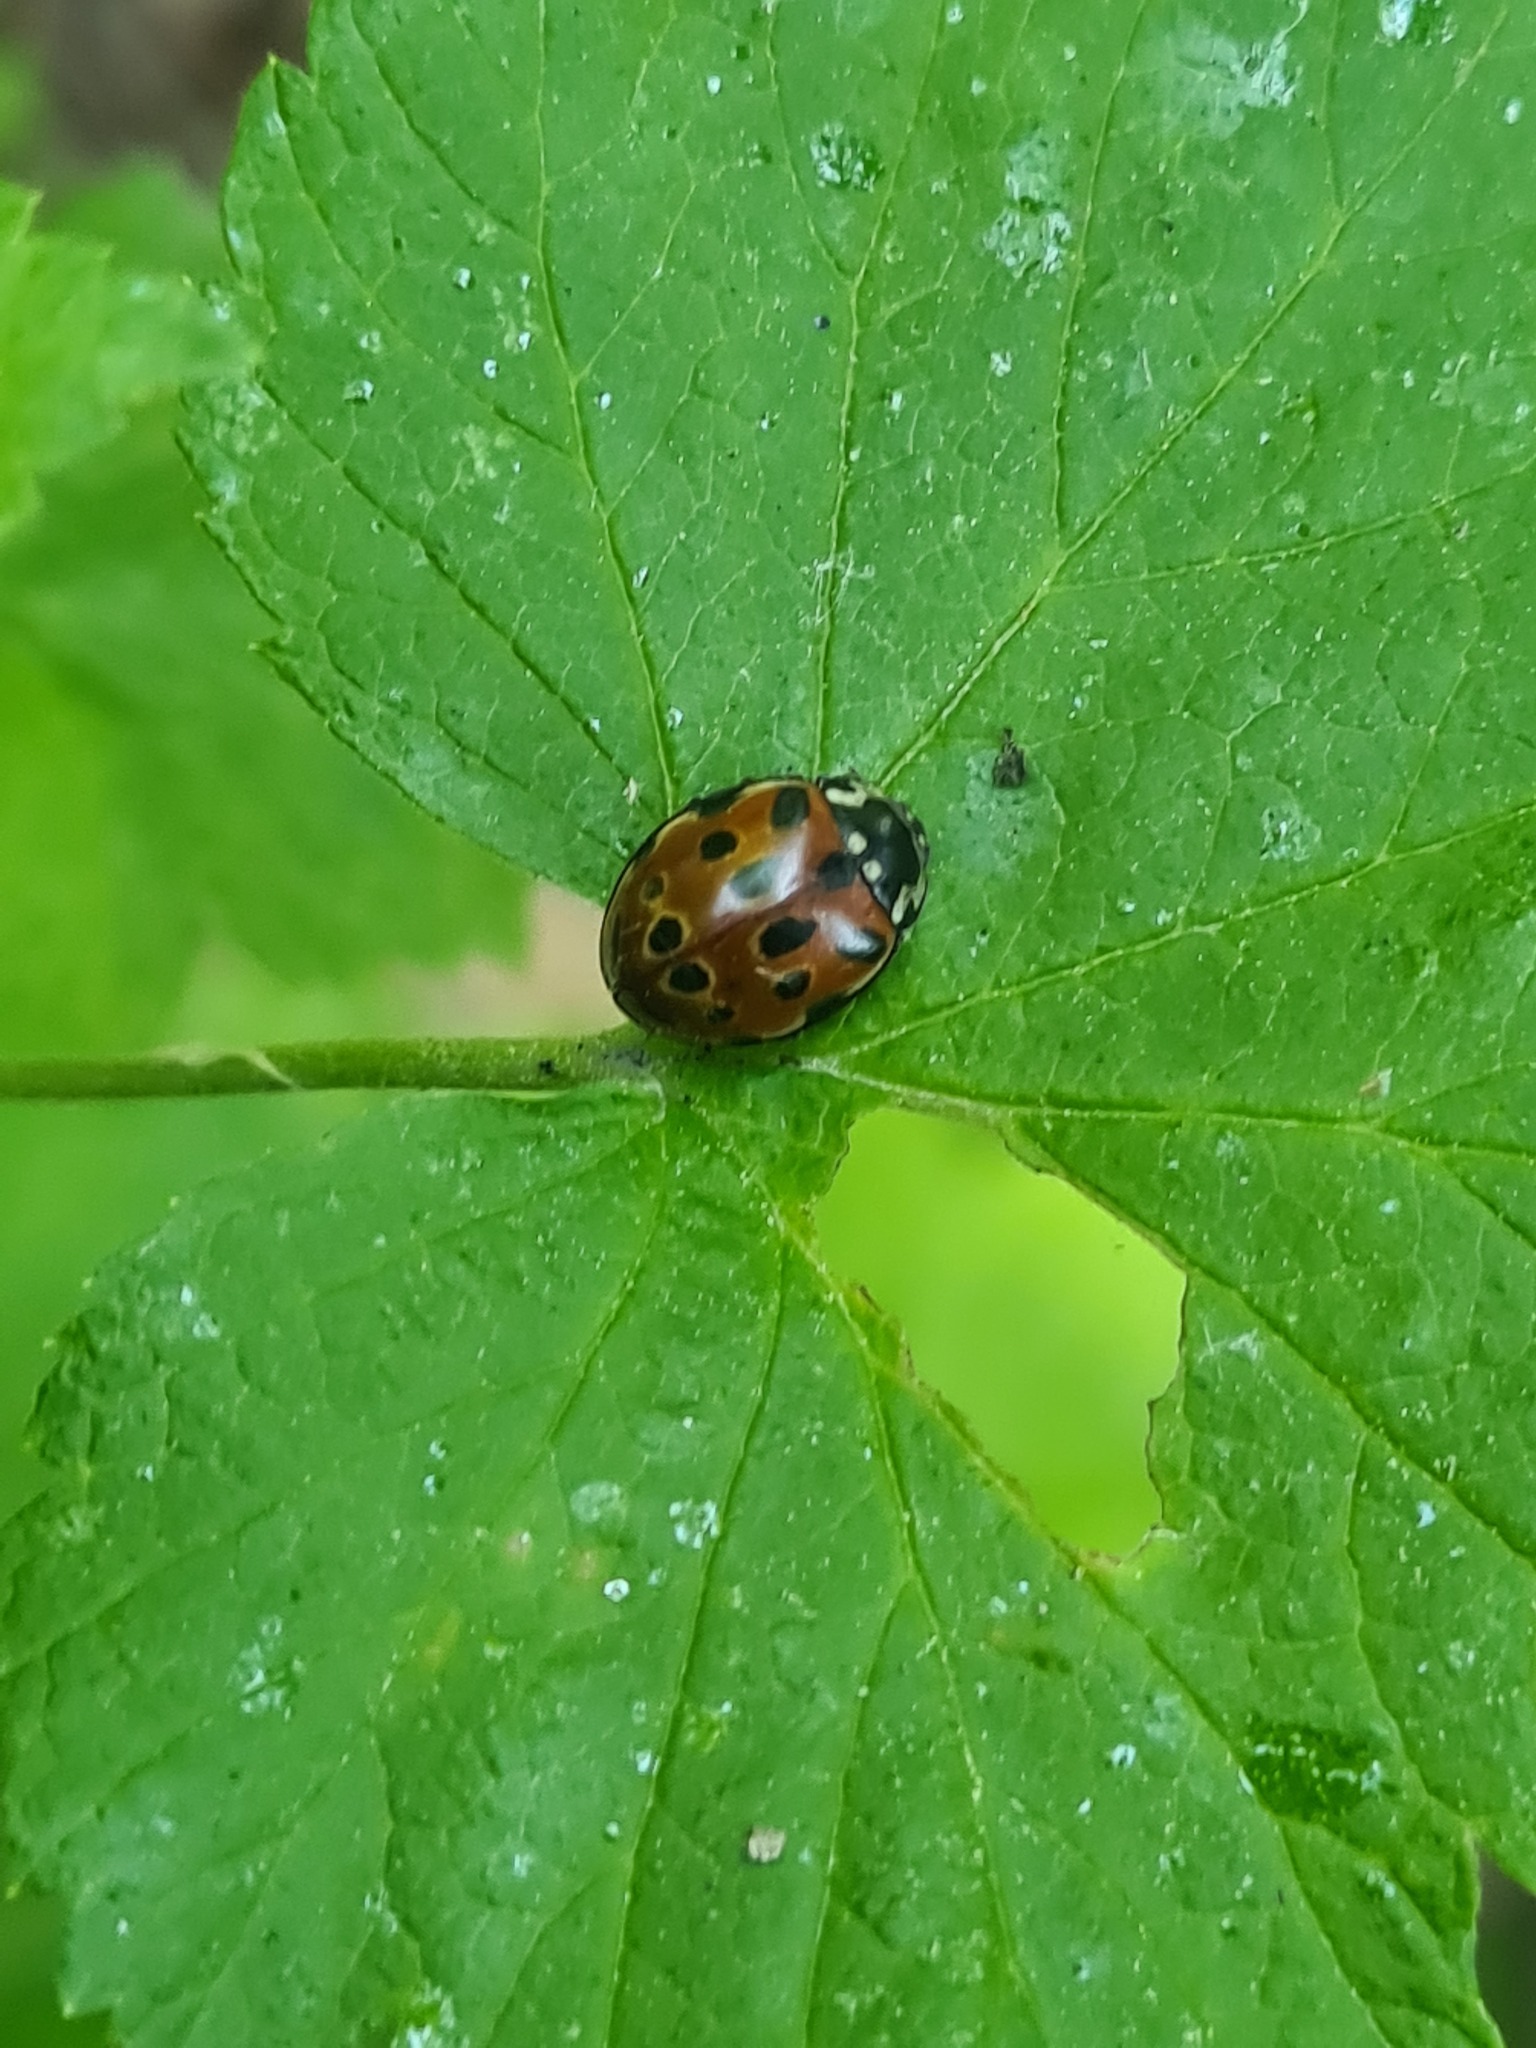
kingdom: Animalia
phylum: Arthropoda
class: Insecta
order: Coleoptera
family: Coccinellidae
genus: Anatis
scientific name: Anatis ocellata
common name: Eyed ladybird
